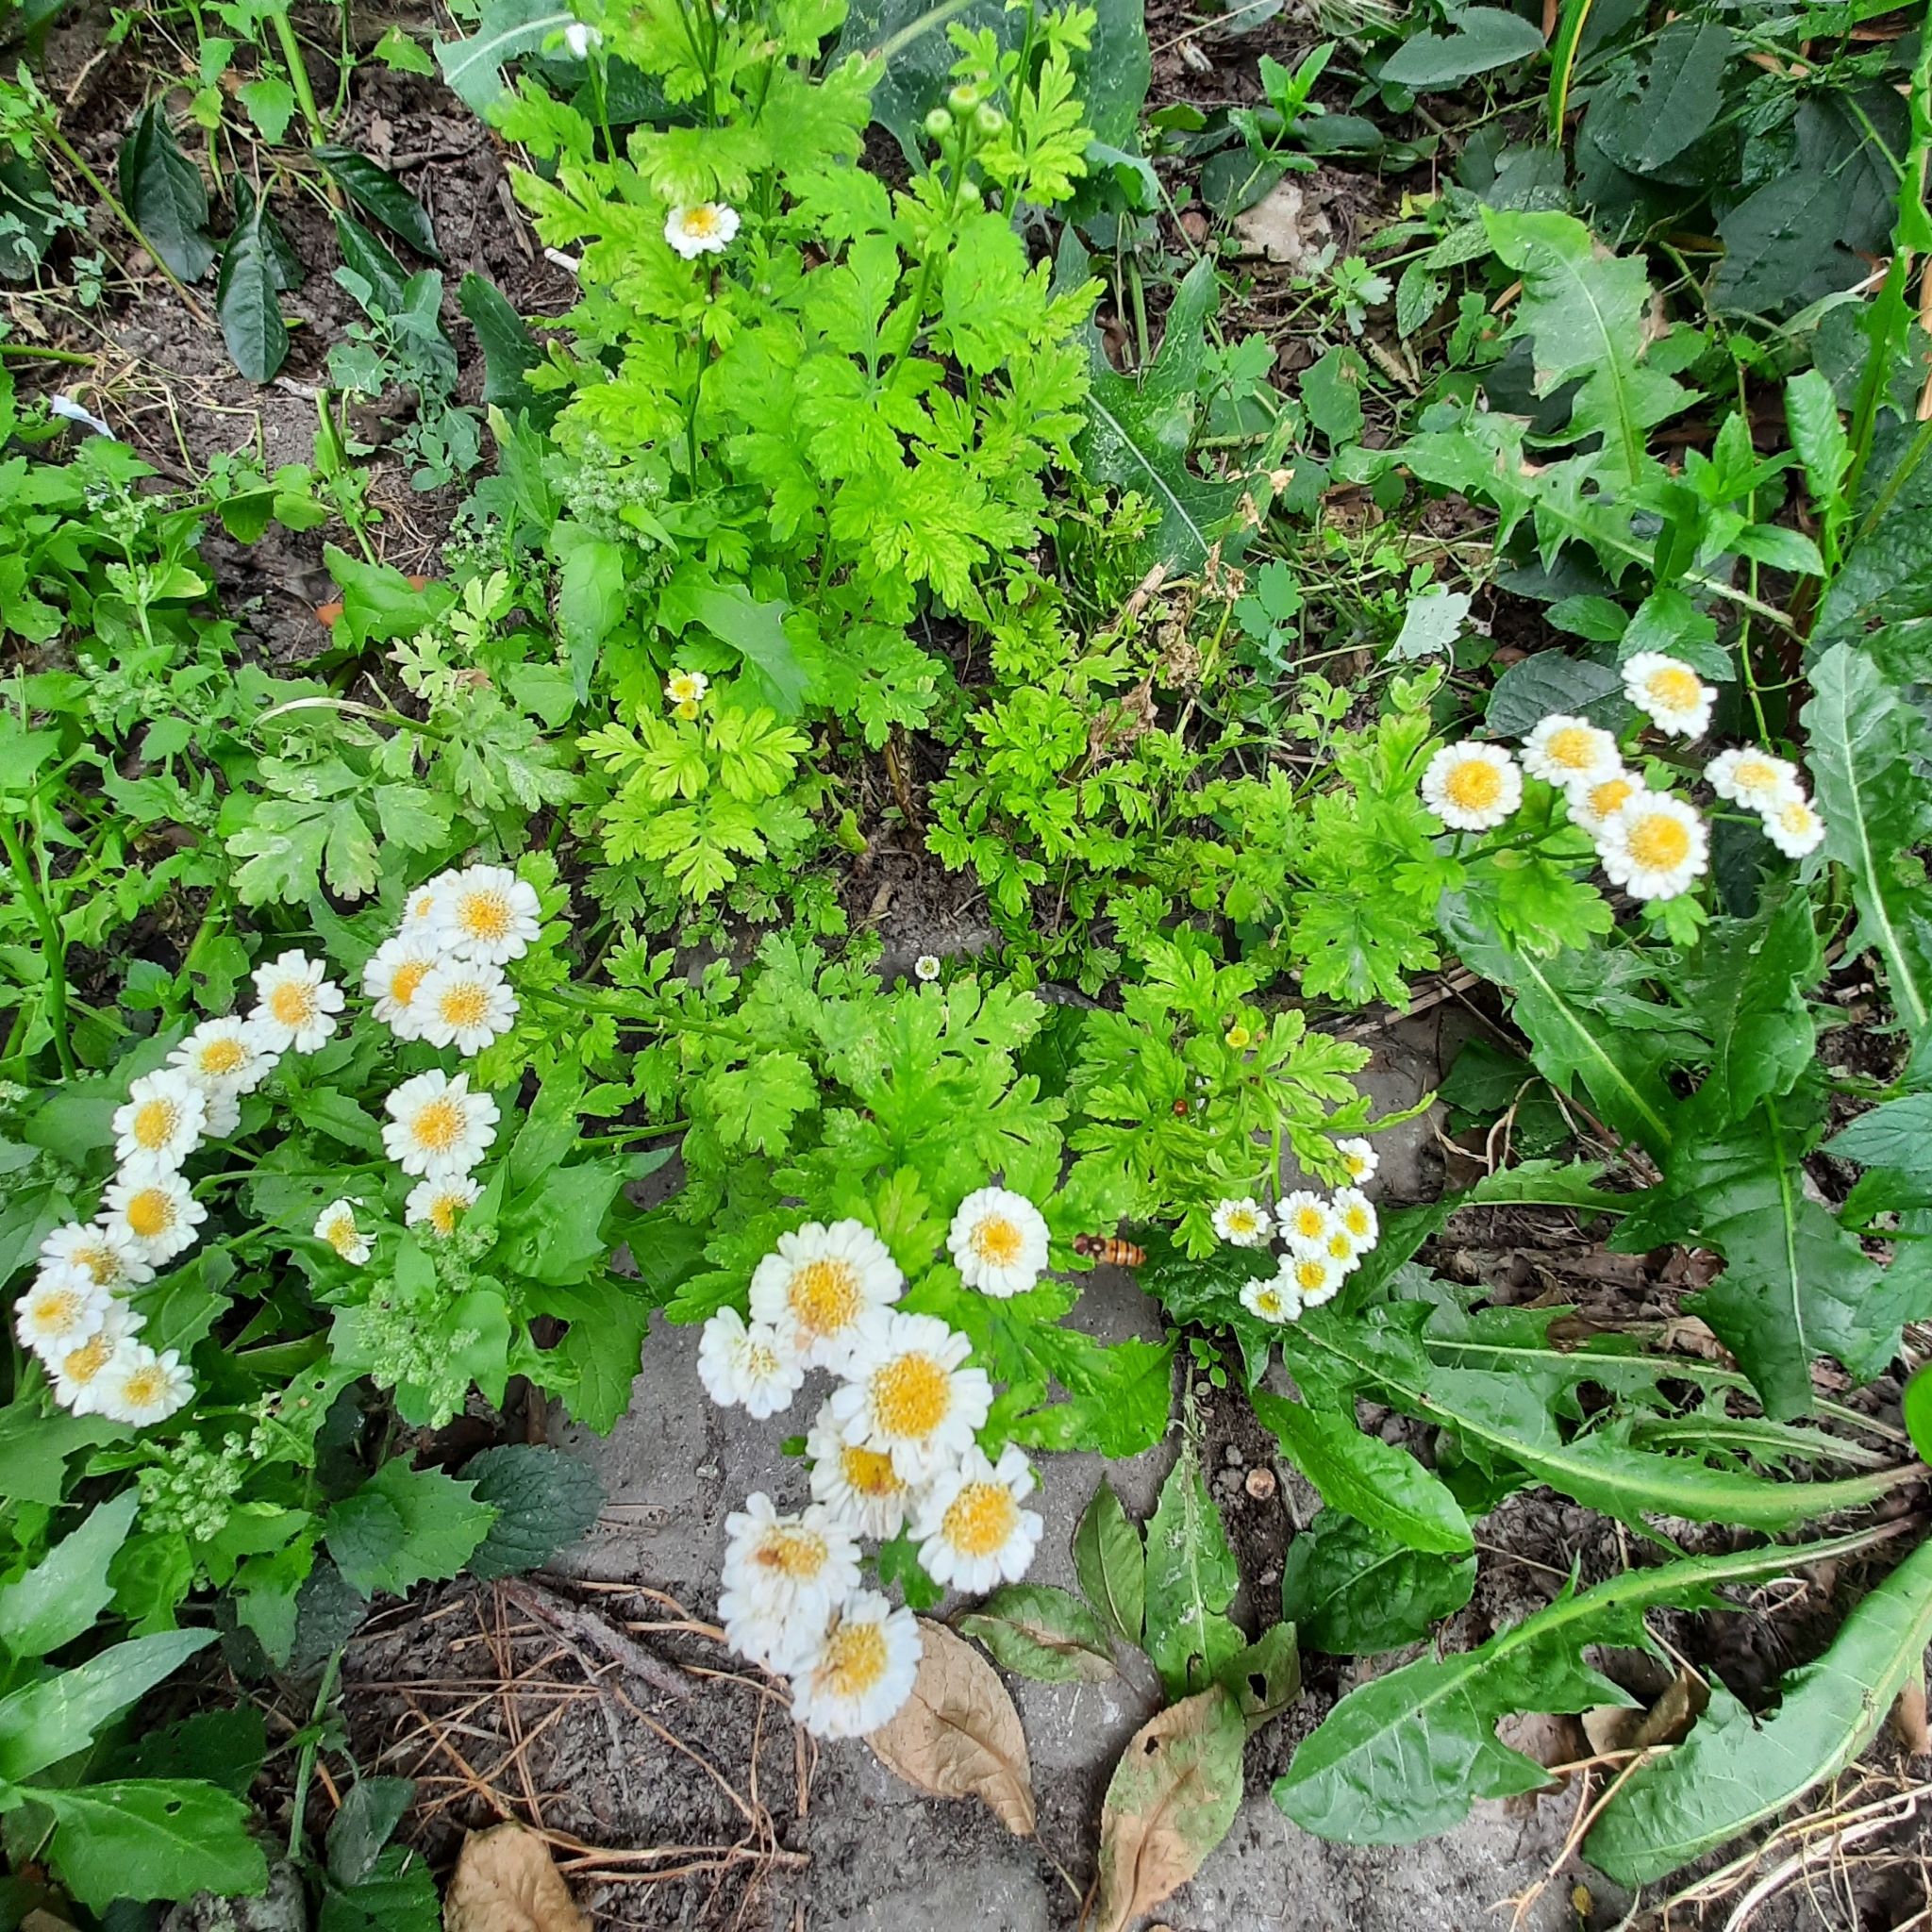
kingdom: Plantae
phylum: Tracheophyta
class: Magnoliopsida
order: Asterales
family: Asteraceae
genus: Tanacetum
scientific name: Tanacetum parthenium
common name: Feverfew
